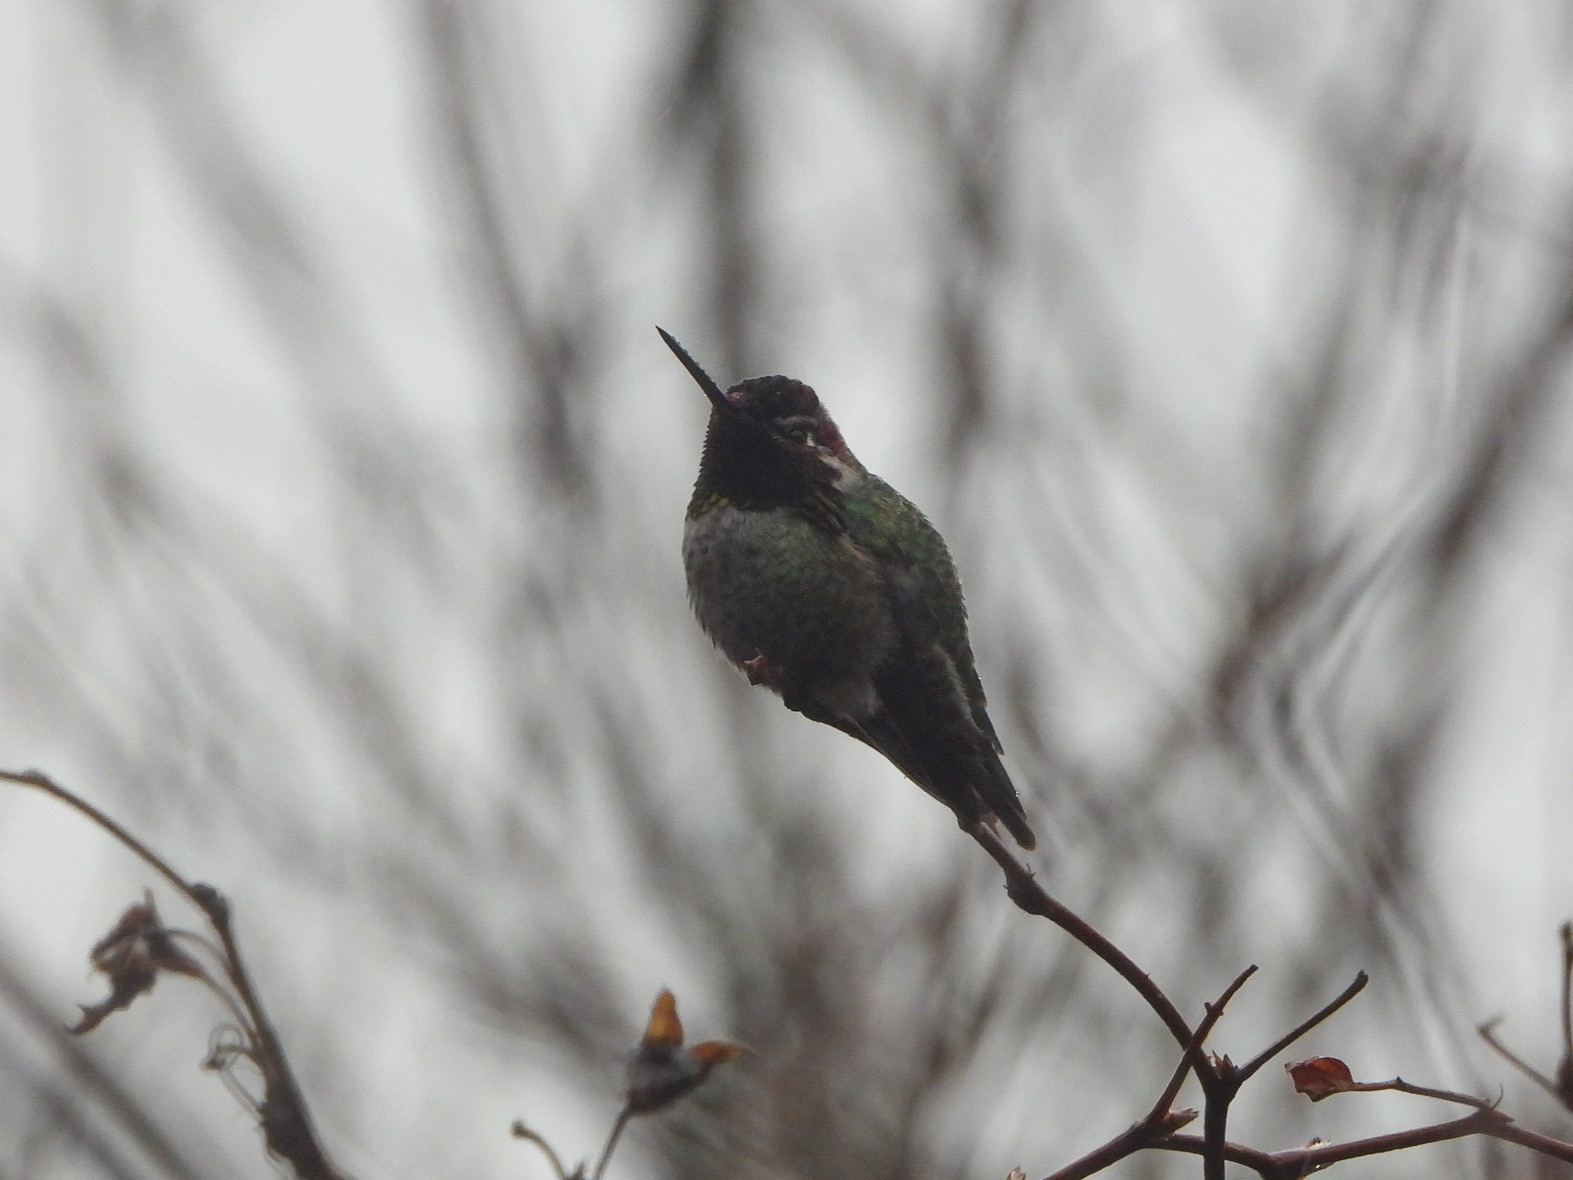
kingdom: Animalia
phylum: Chordata
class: Aves
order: Apodiformes
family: Trochilidae
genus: Calypte
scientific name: Calypte anna
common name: Anna's hummingbird
